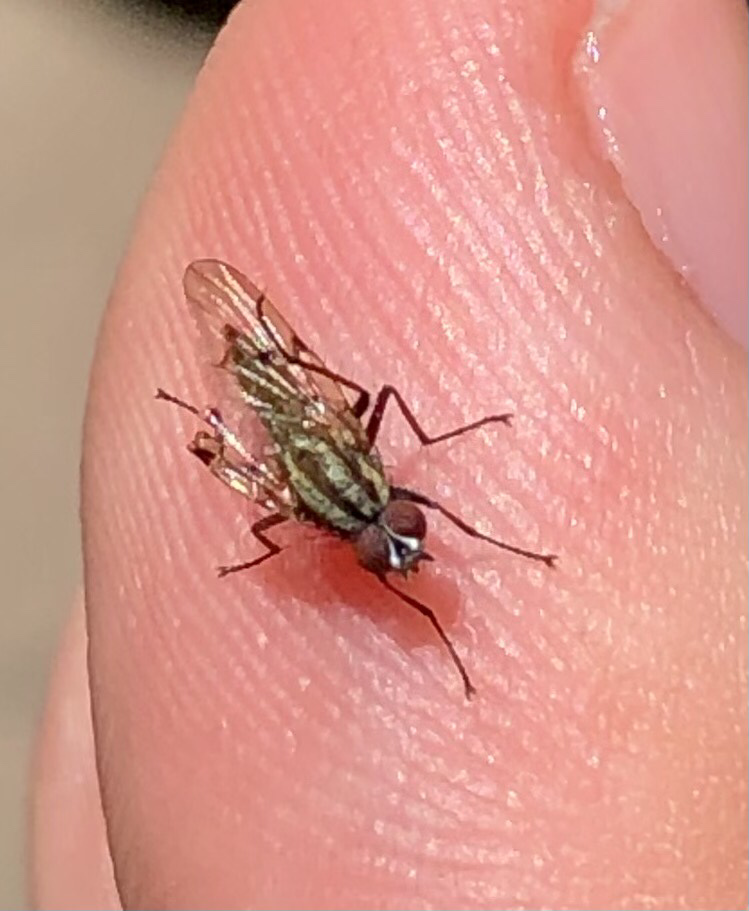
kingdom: Animalia
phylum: Arthropoda
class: Insecta
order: Diptera
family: Anthomyiidae
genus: Anthomyia
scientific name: Anthomyia punctipennis
